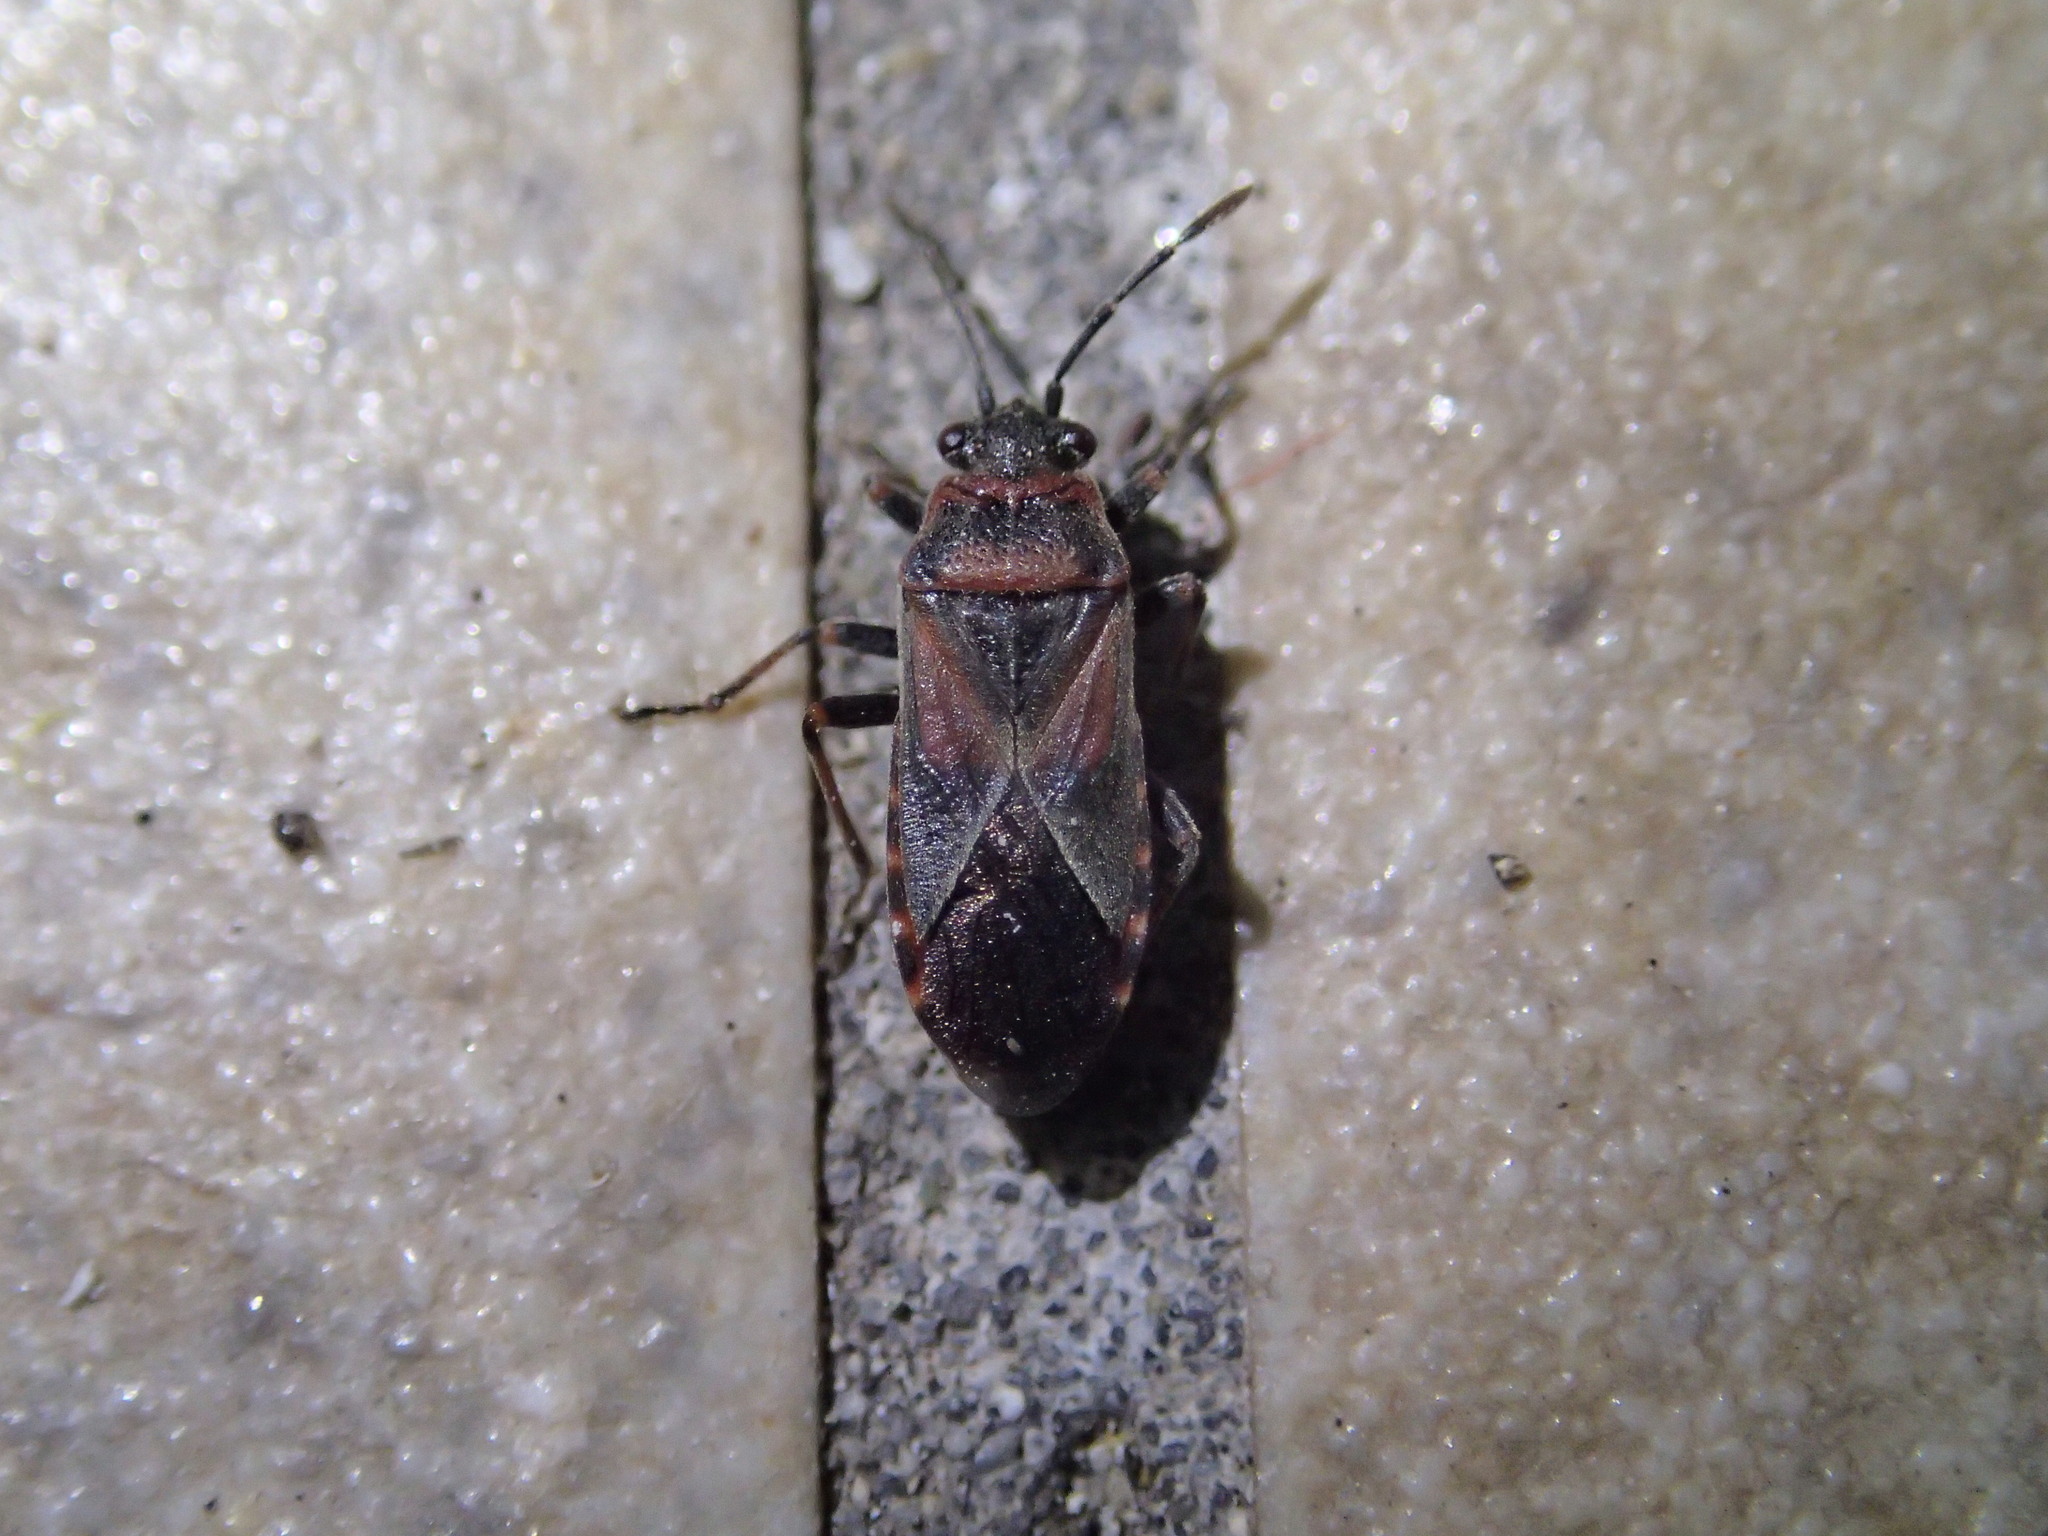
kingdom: Animalia
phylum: Arthropoda
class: Insecta
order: Hemiptera
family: Lygaeidae
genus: Arocatus
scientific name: Arocatus melanocephalus
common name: Lygaeid bug
